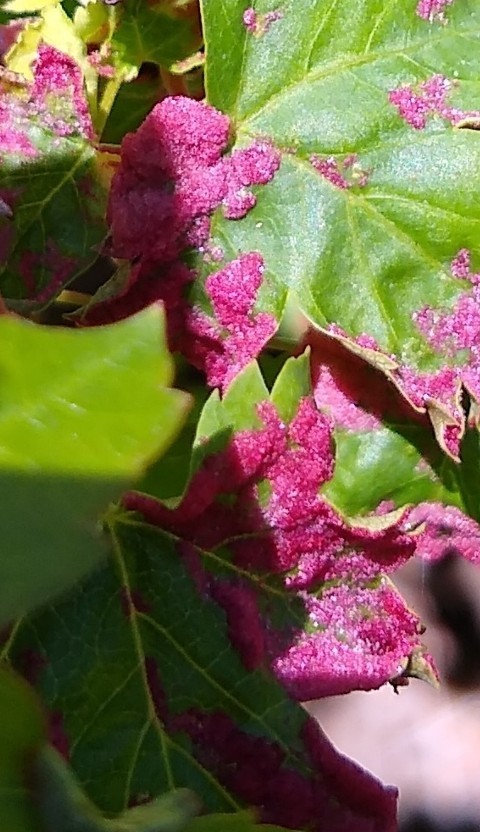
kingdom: Animalia
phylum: Arthropoda
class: Arachnida
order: Trombidiformes
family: Eriophyidae
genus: Aceria
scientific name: Aceria
